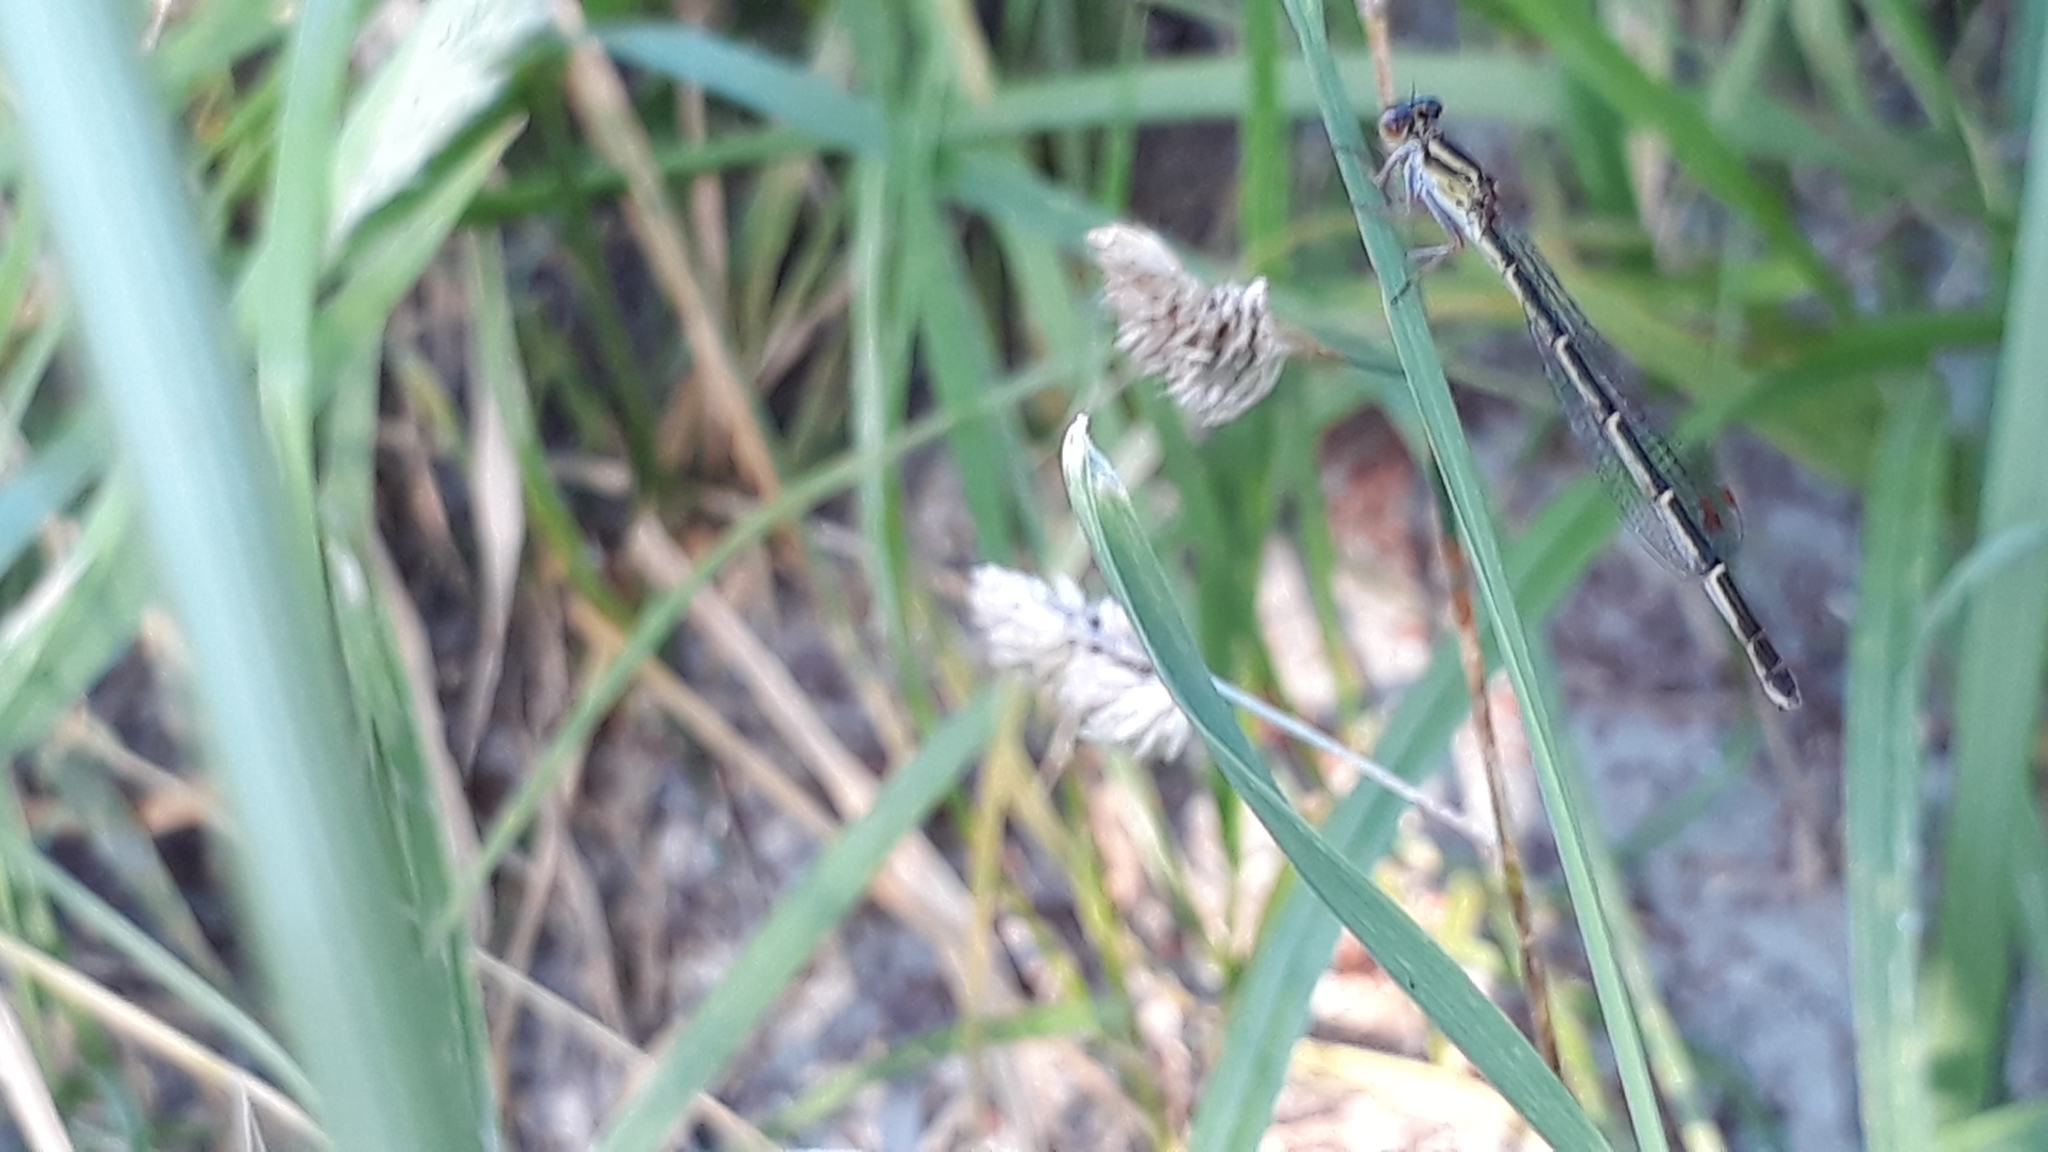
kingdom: Animalia
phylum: Arthropoda
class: Insecta
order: Odonata
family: Coenagrionidae
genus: Xanthocnemis
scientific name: Xanthocnemis zealandica
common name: Common redcoat damselfly
